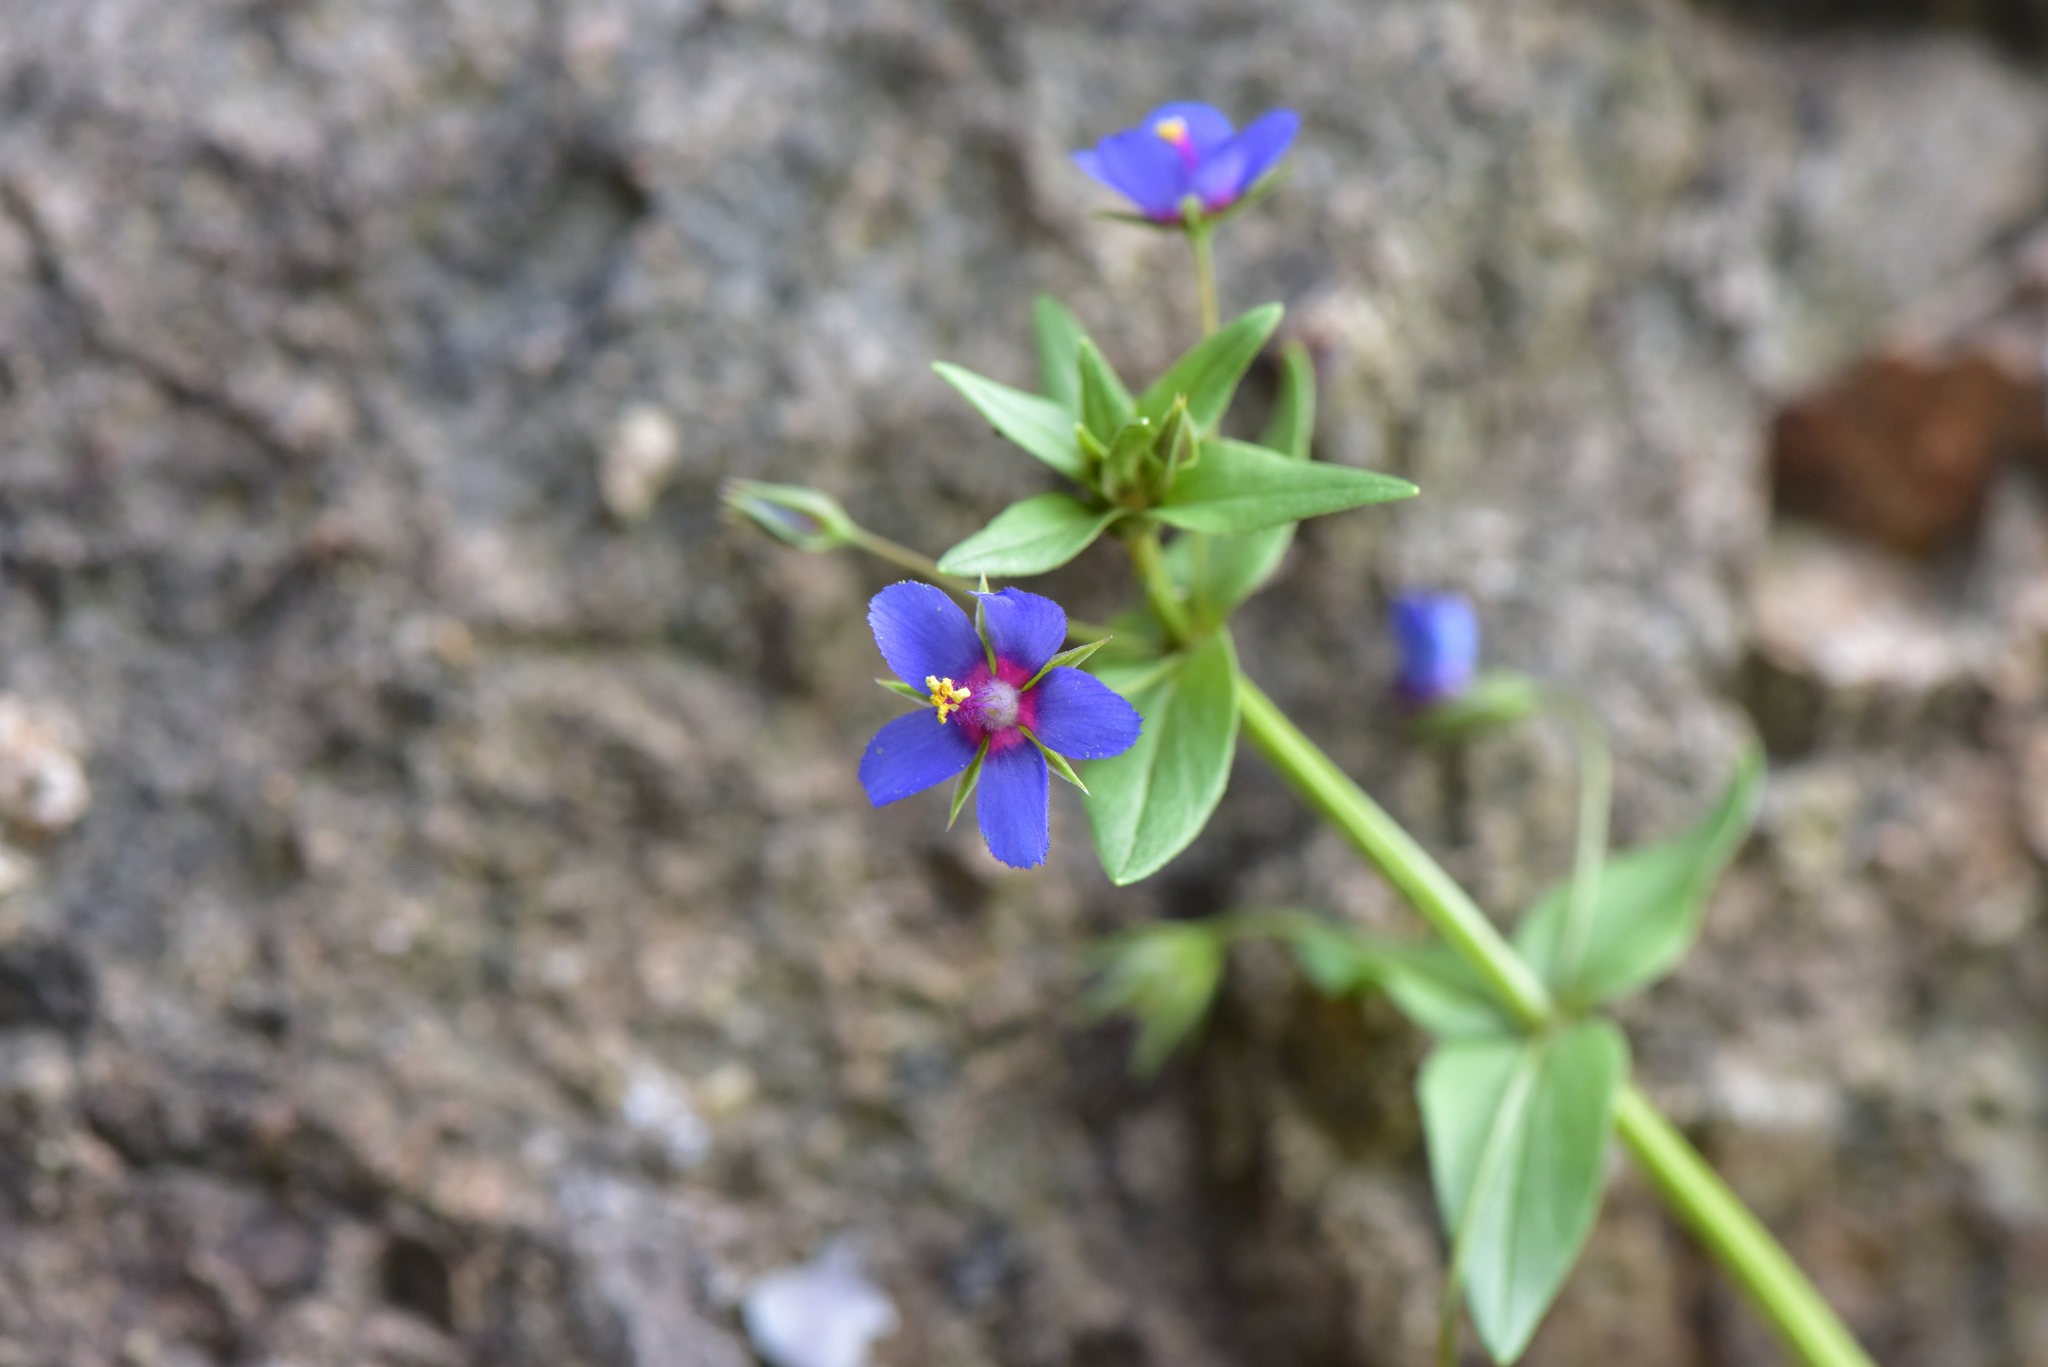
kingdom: Plantae
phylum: Tracheophyta
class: Magnoliopsida
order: Ericales
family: Primulaceae
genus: Lysimachia
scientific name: Lysimachia loeflingii
